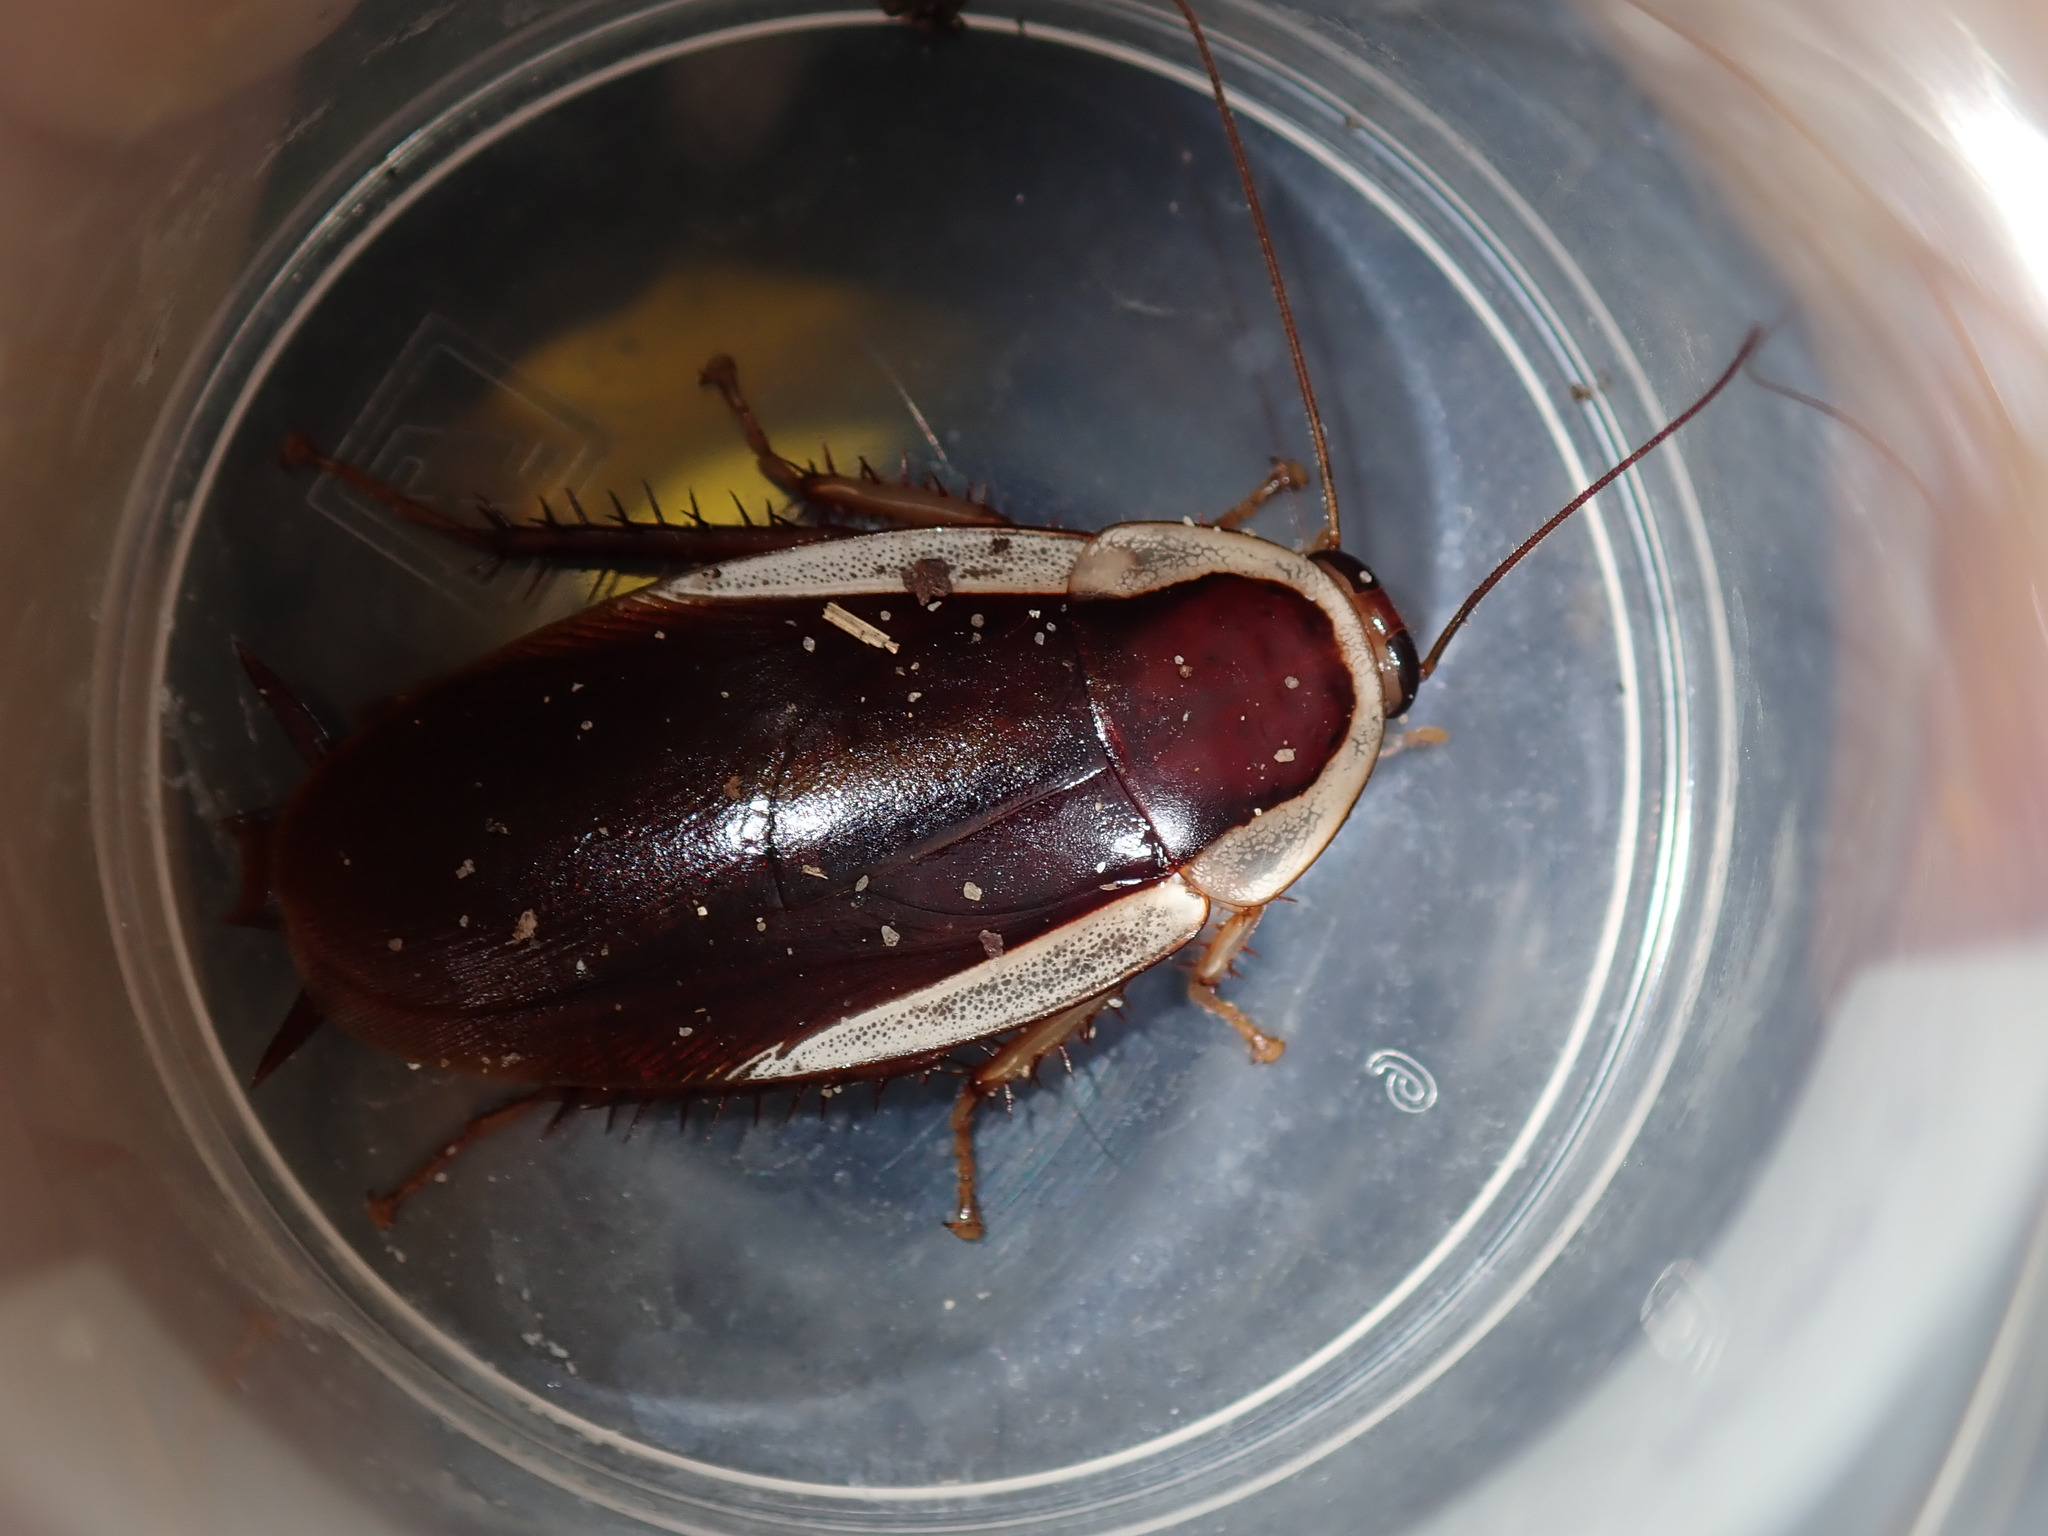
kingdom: Animalia
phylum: Arthropoda
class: Insecta
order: Blattodea
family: Blattidae
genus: Methana
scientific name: Methana parva
